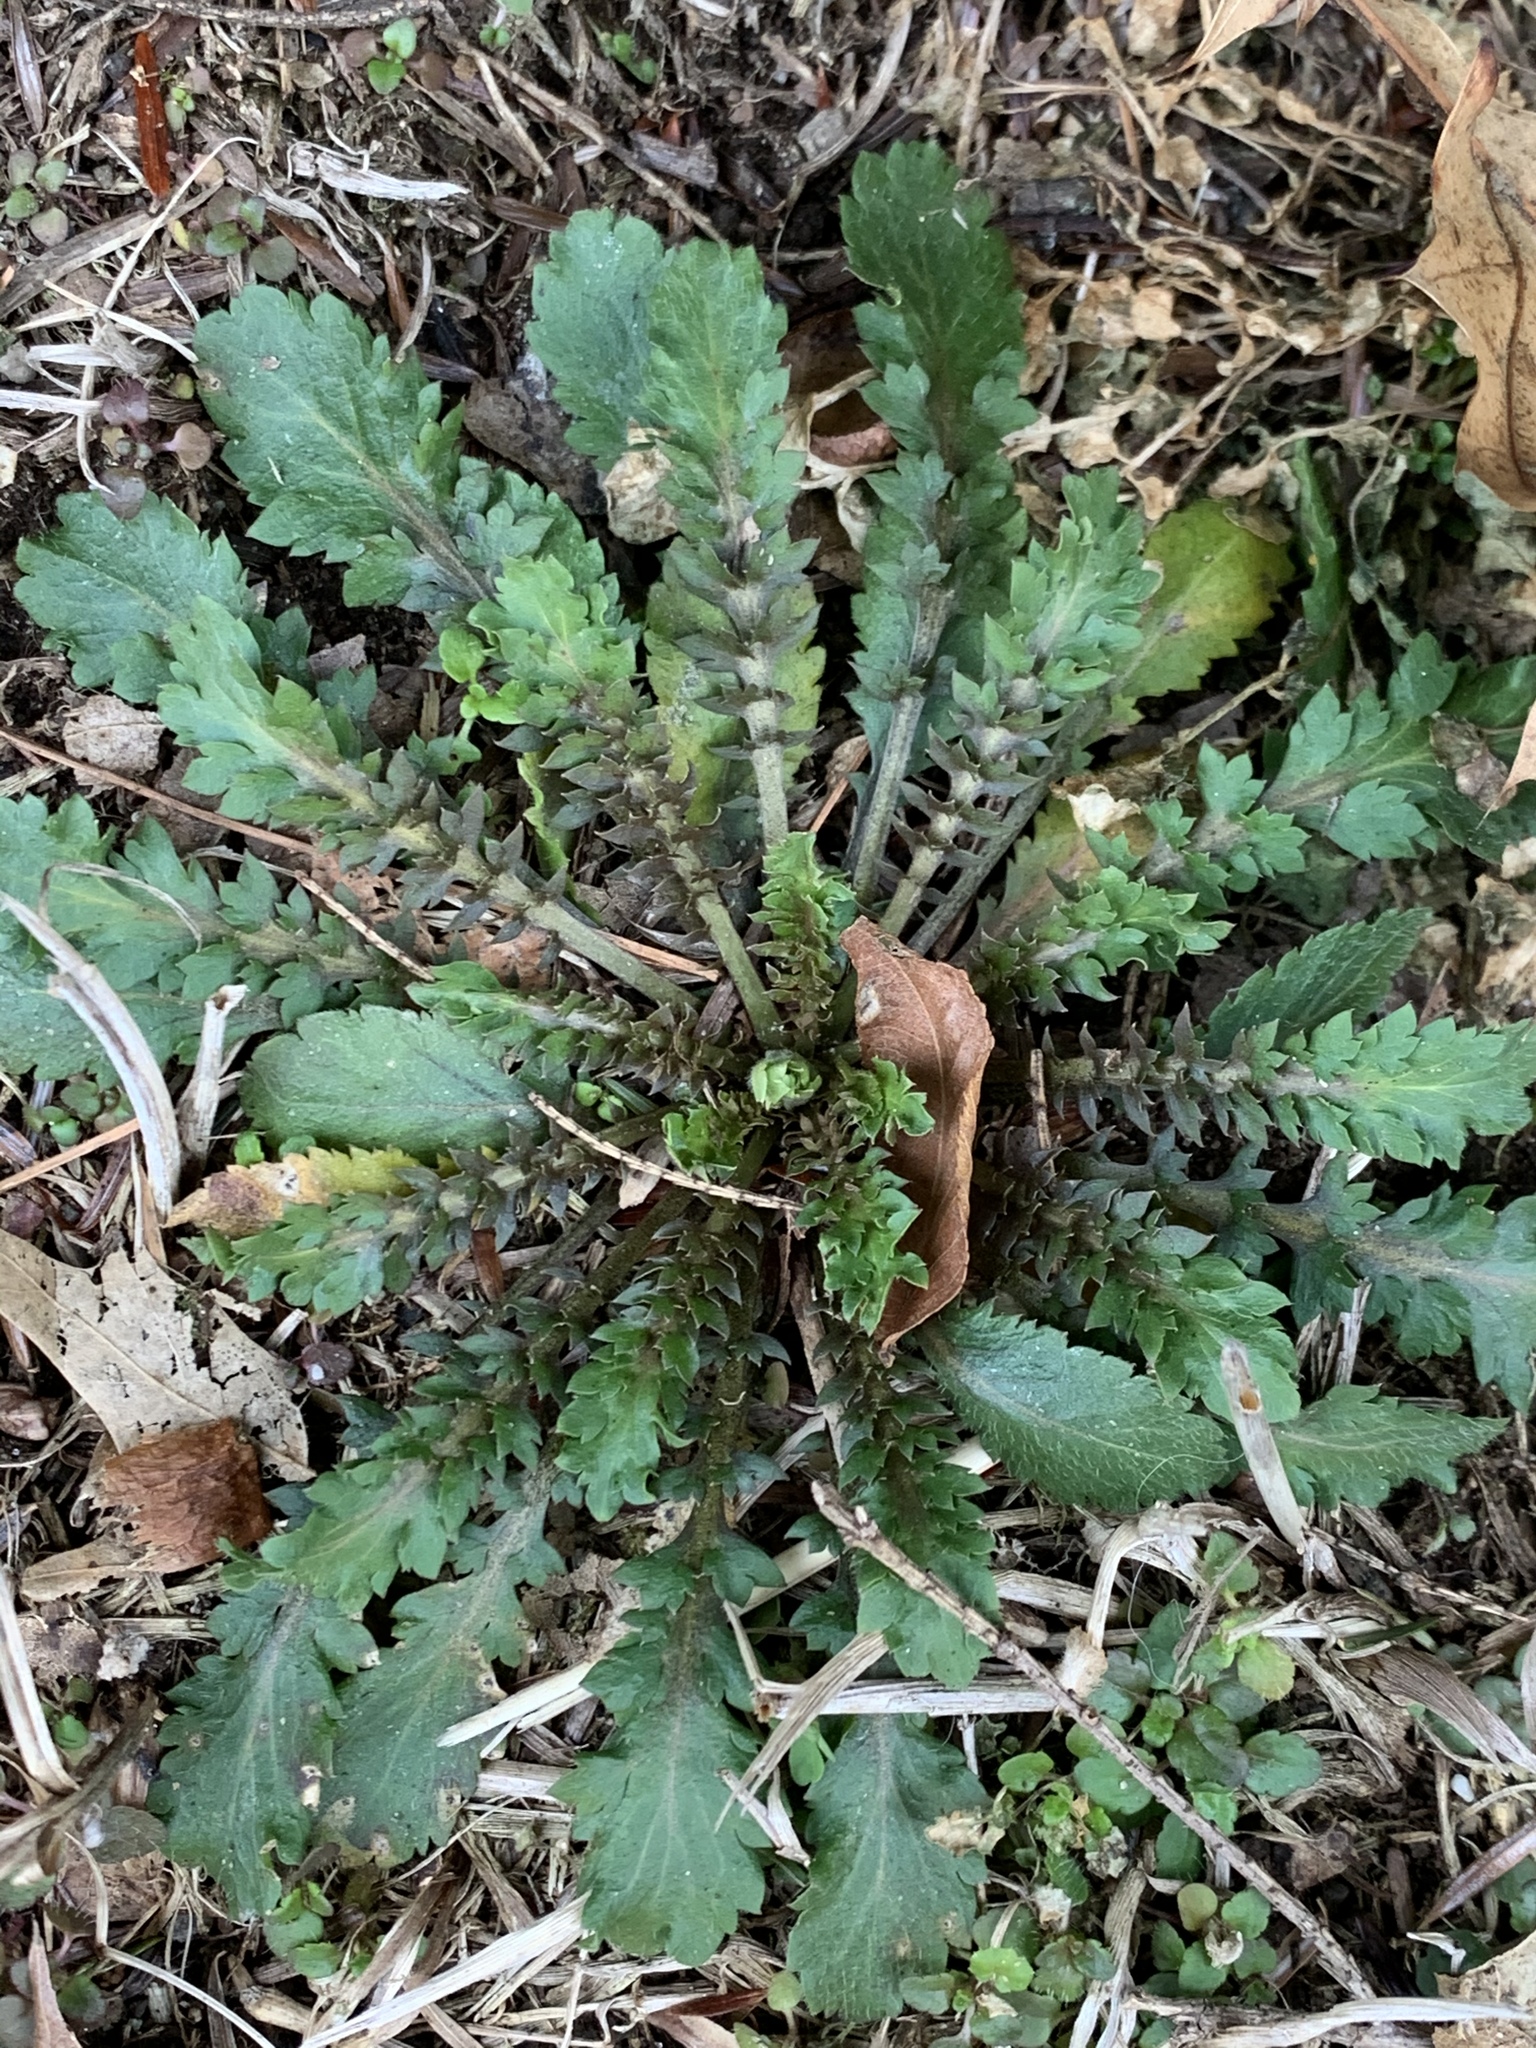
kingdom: Plantae
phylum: Tracheophyta
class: Magnoliopsida
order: Brassicales
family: Brassicaceae
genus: Lepidium
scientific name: Lepidium virginicum
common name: Least pepperwort
